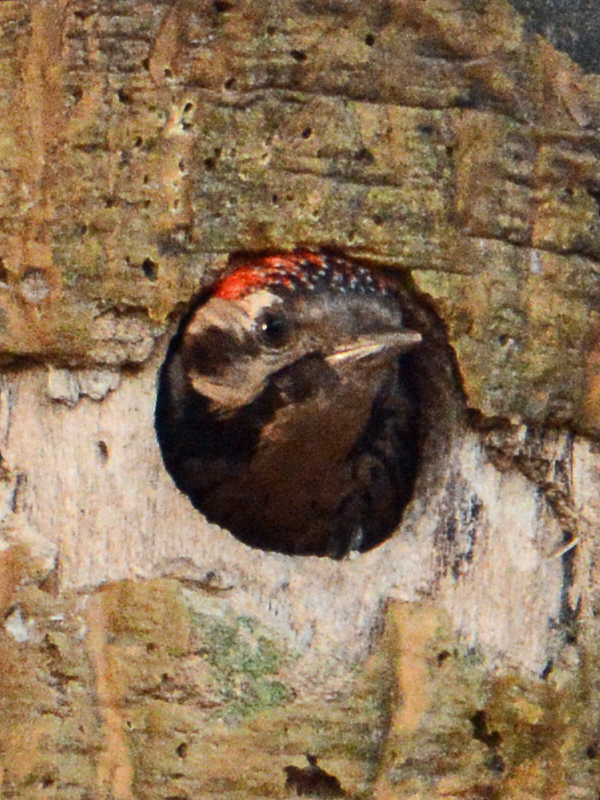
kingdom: Animalia
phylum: Chordata
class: Aves
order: Piciformes
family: Picidae
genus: Dryobates
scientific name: Dryobates scalaris
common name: Ladder-backed woodpecker
